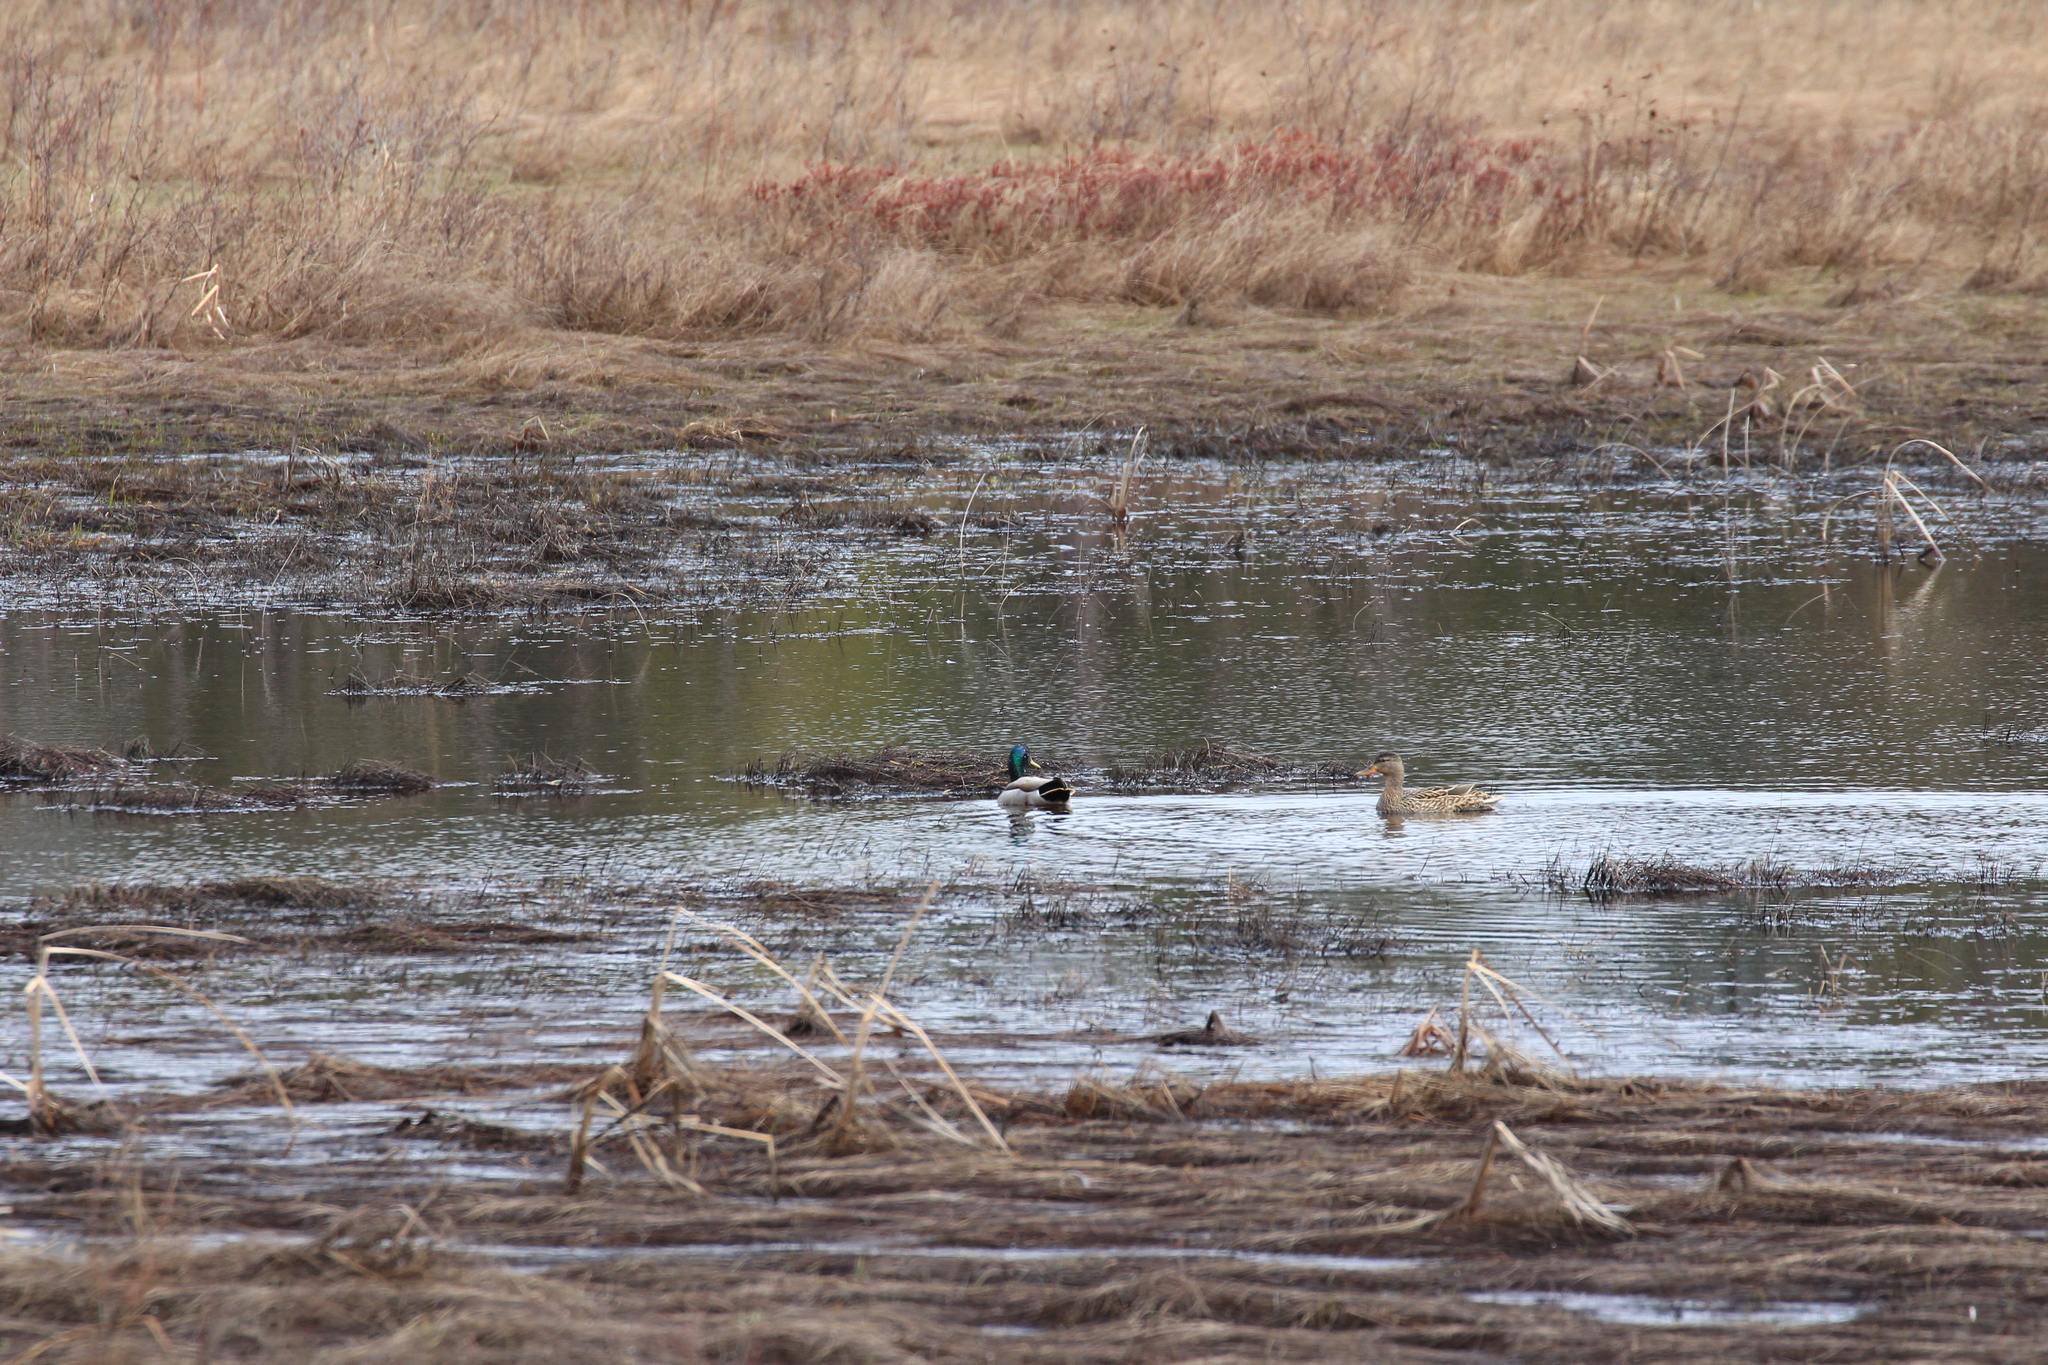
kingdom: Animalia
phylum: Chordata
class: Aves
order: Anseriformes
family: Anatidae
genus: Anas
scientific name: Anas platyrhynchos
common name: Mallard
